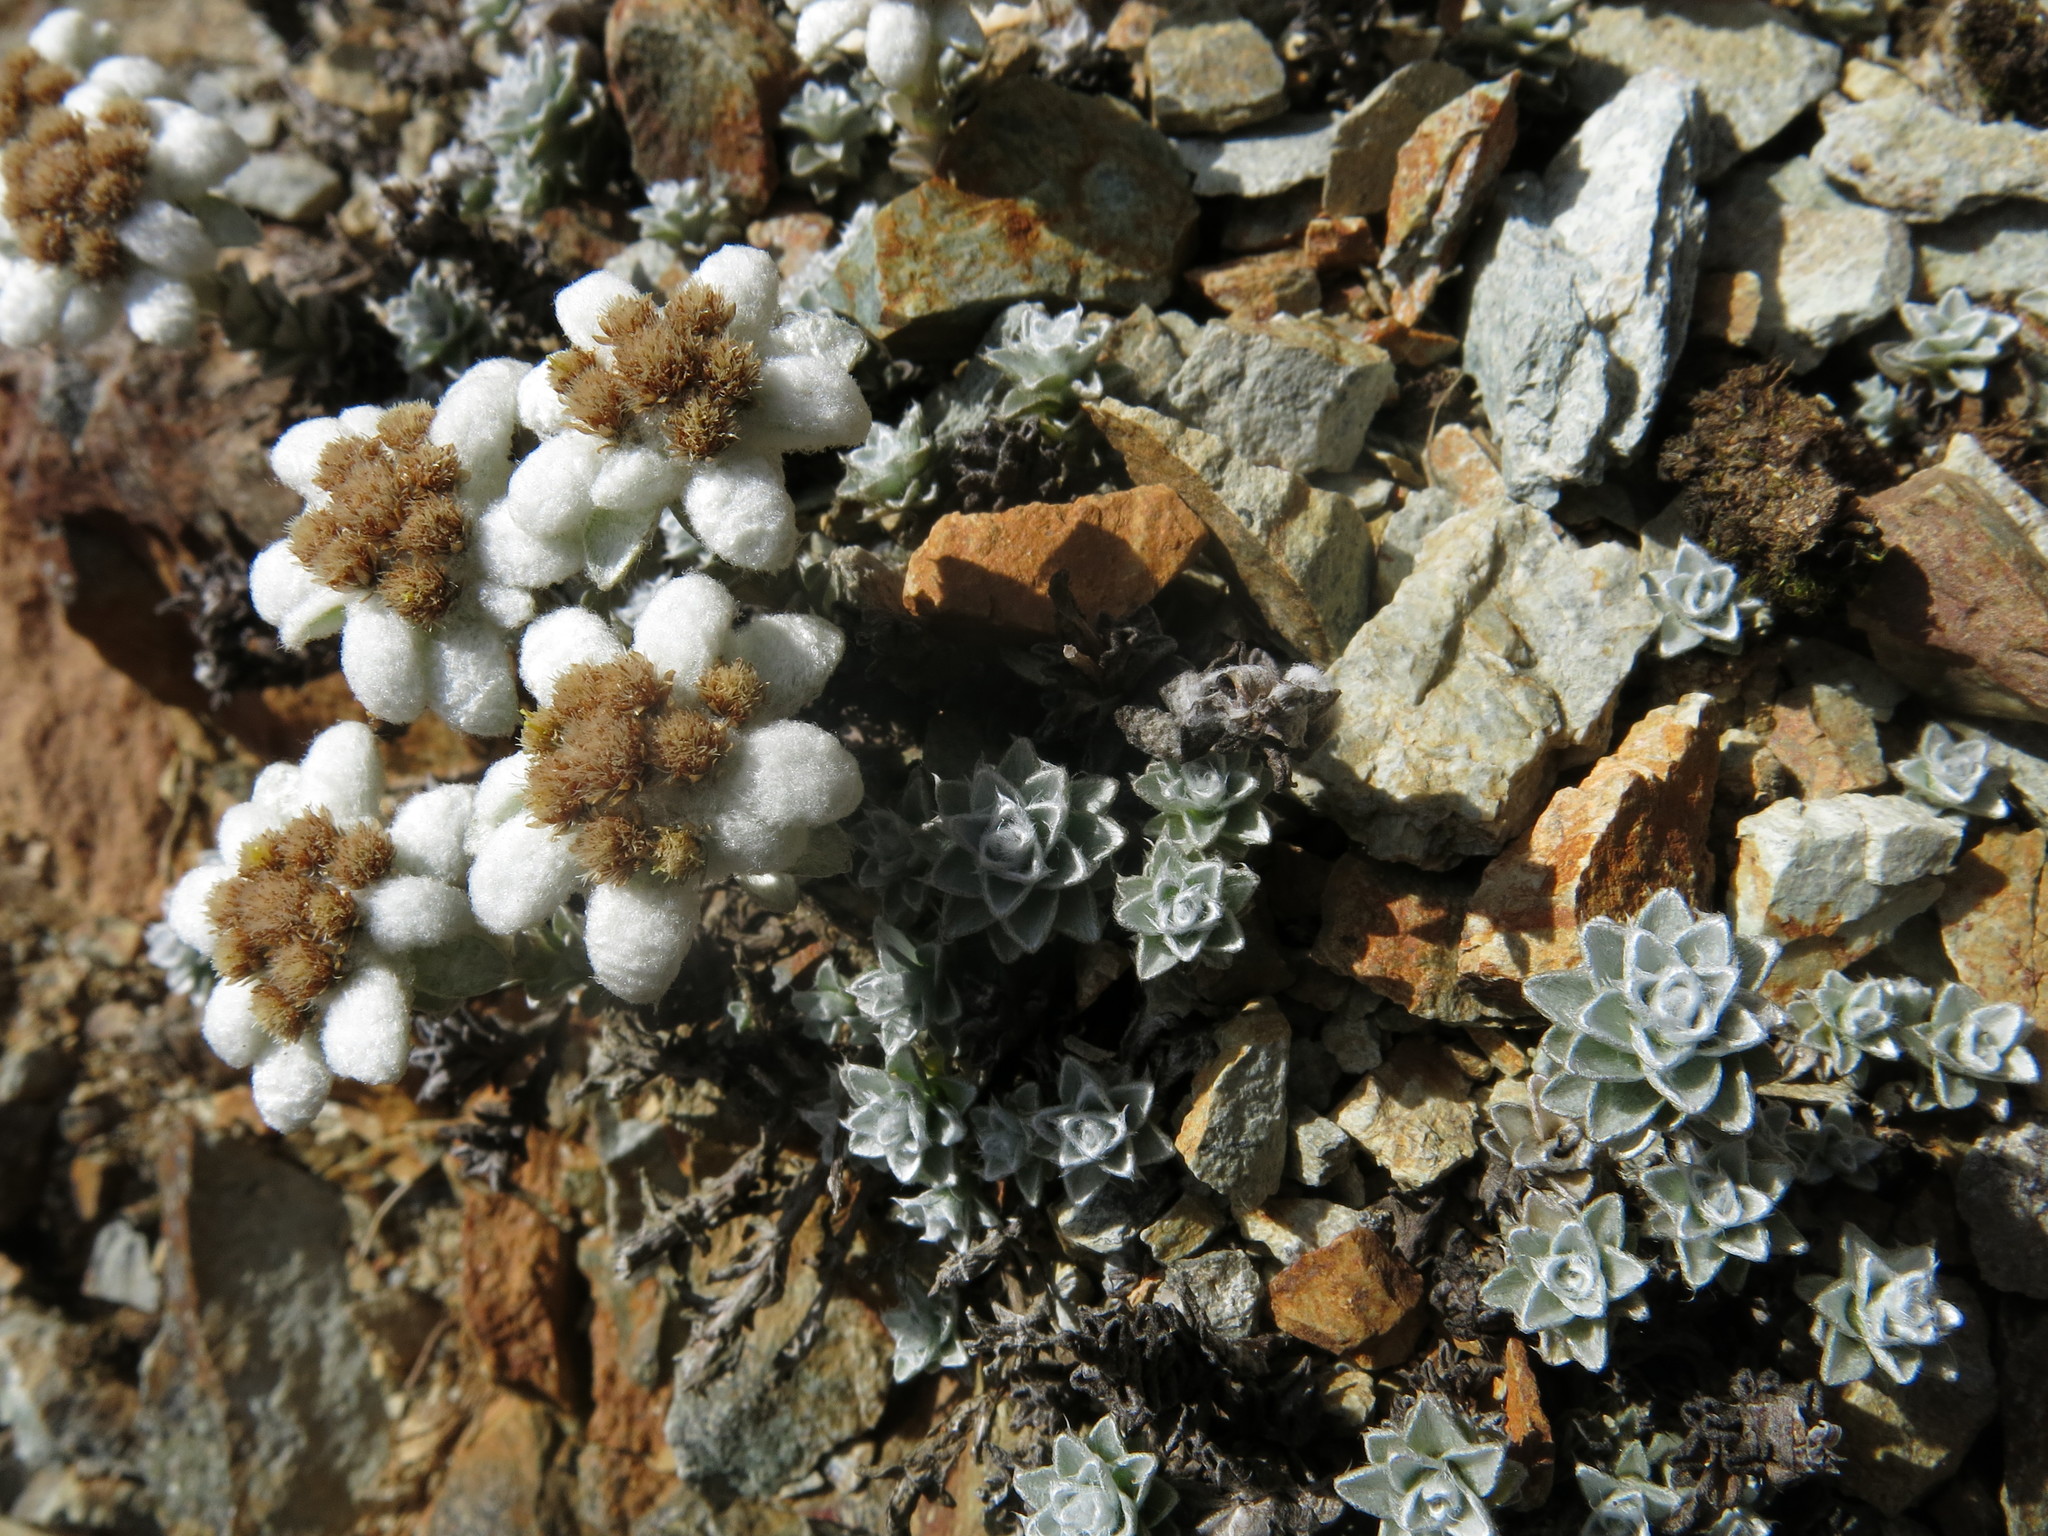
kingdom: Plantae
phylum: Tracheophyta
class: Magnoliopsida
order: Asterales
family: Asteraceae
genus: Leucogenes
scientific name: Leucogenes grandiceps
